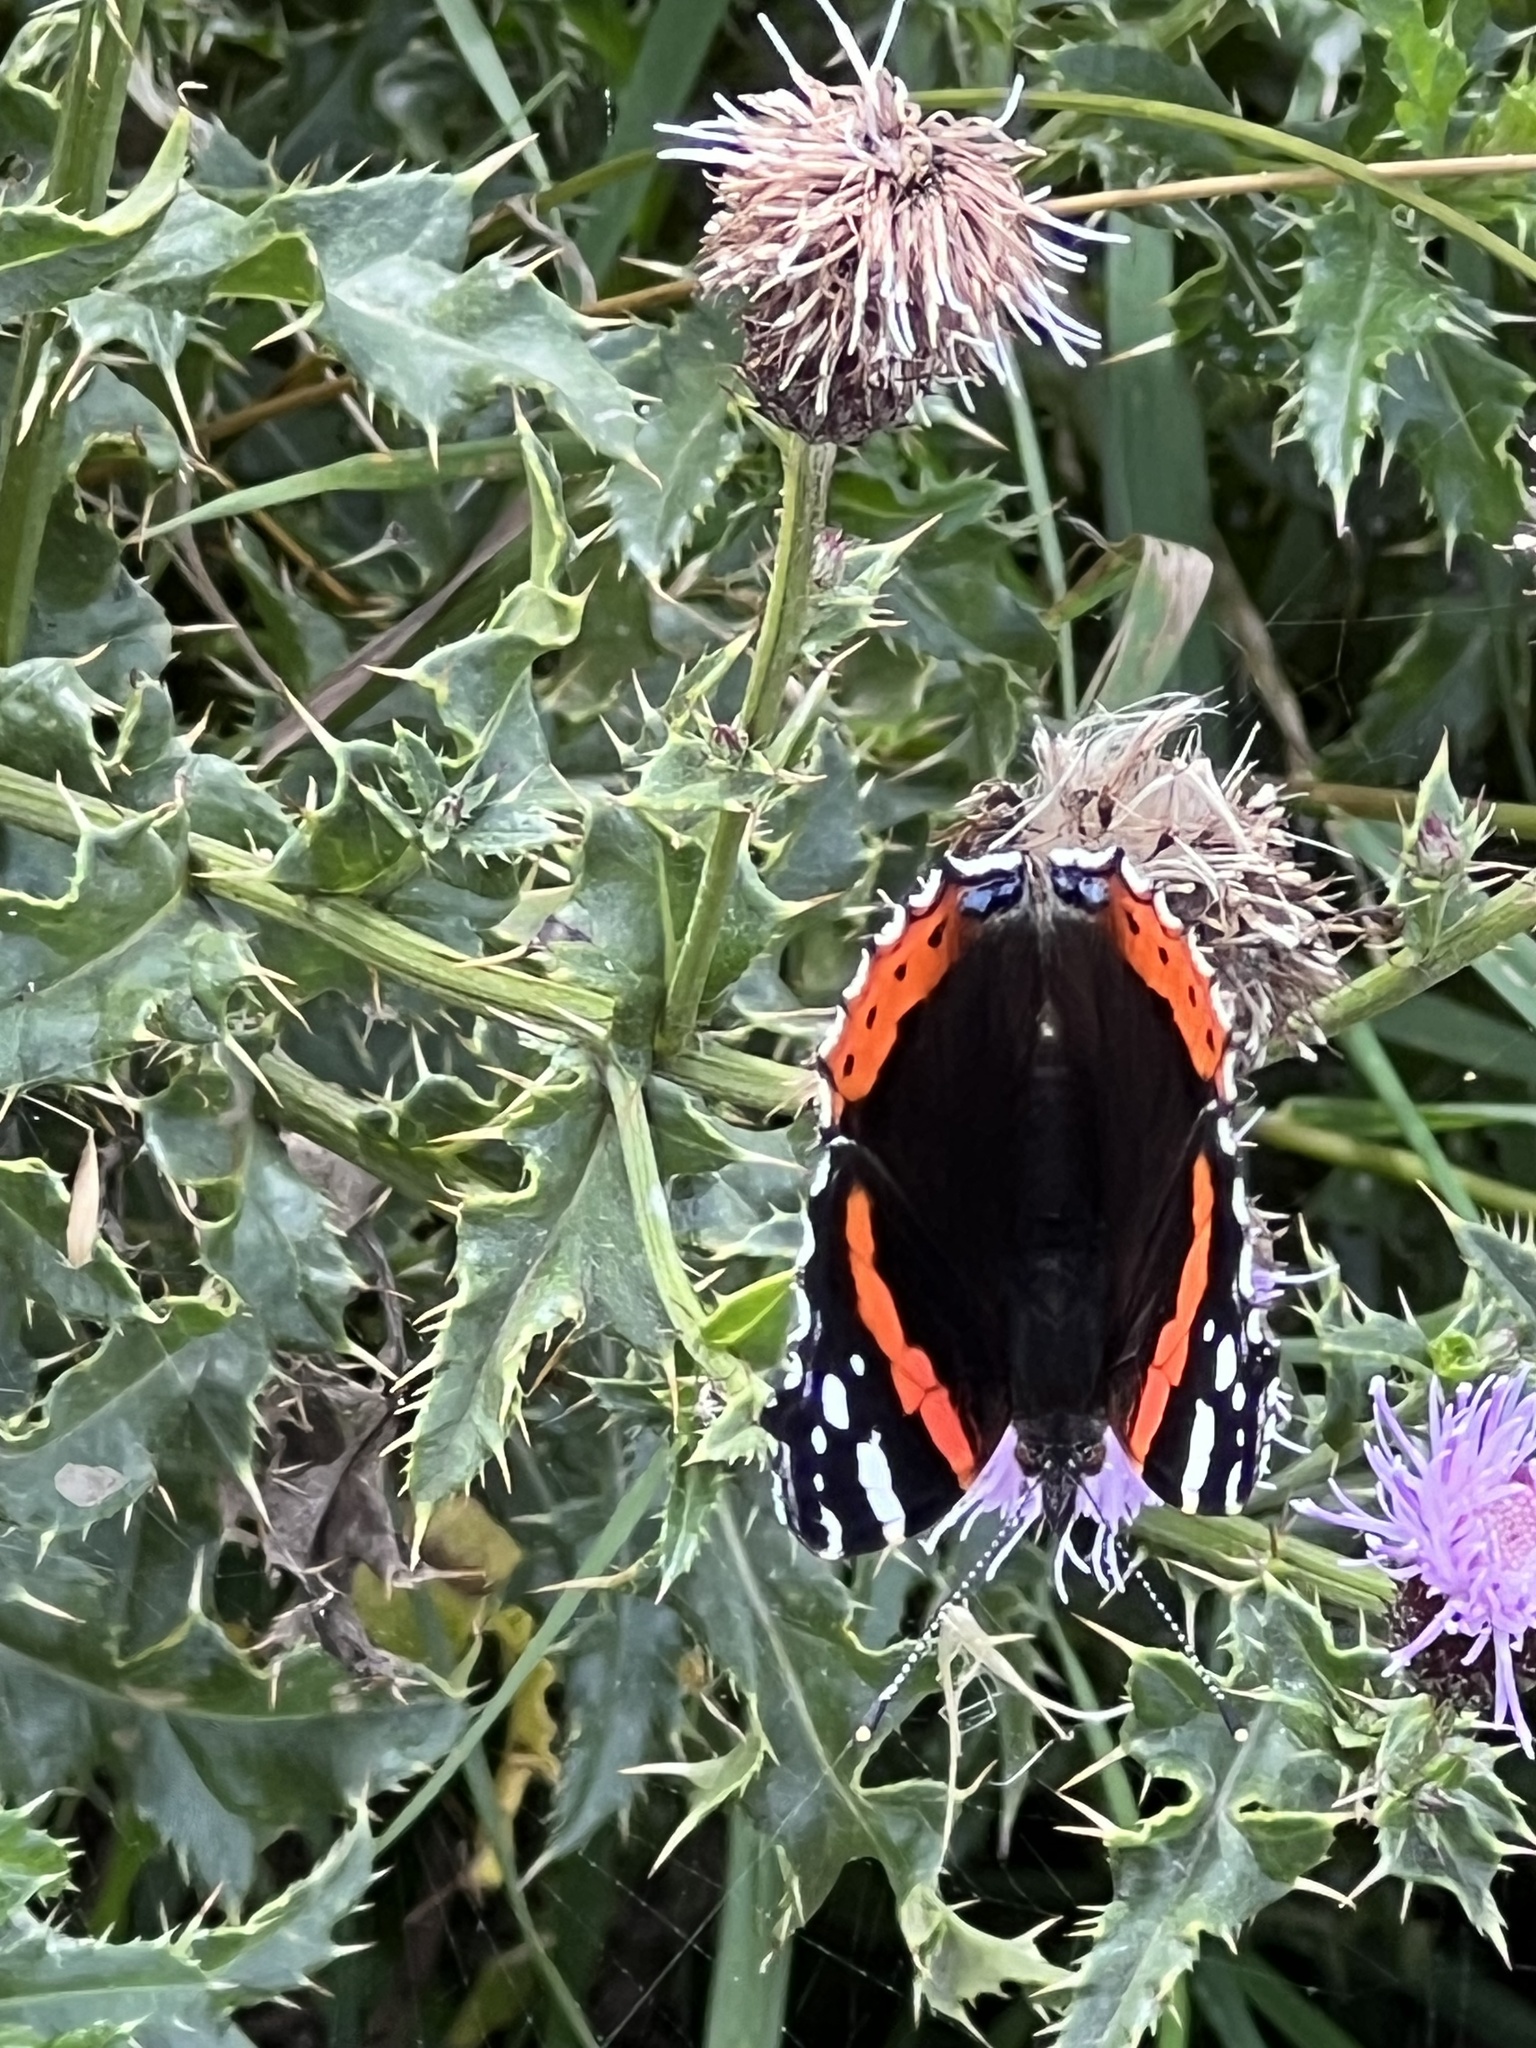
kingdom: Animalia
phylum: Arthropoda
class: Insecta
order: Lepidoptera
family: Nymphalidae
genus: Vanessa
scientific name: Vanessa atalanta
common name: Red admiral
